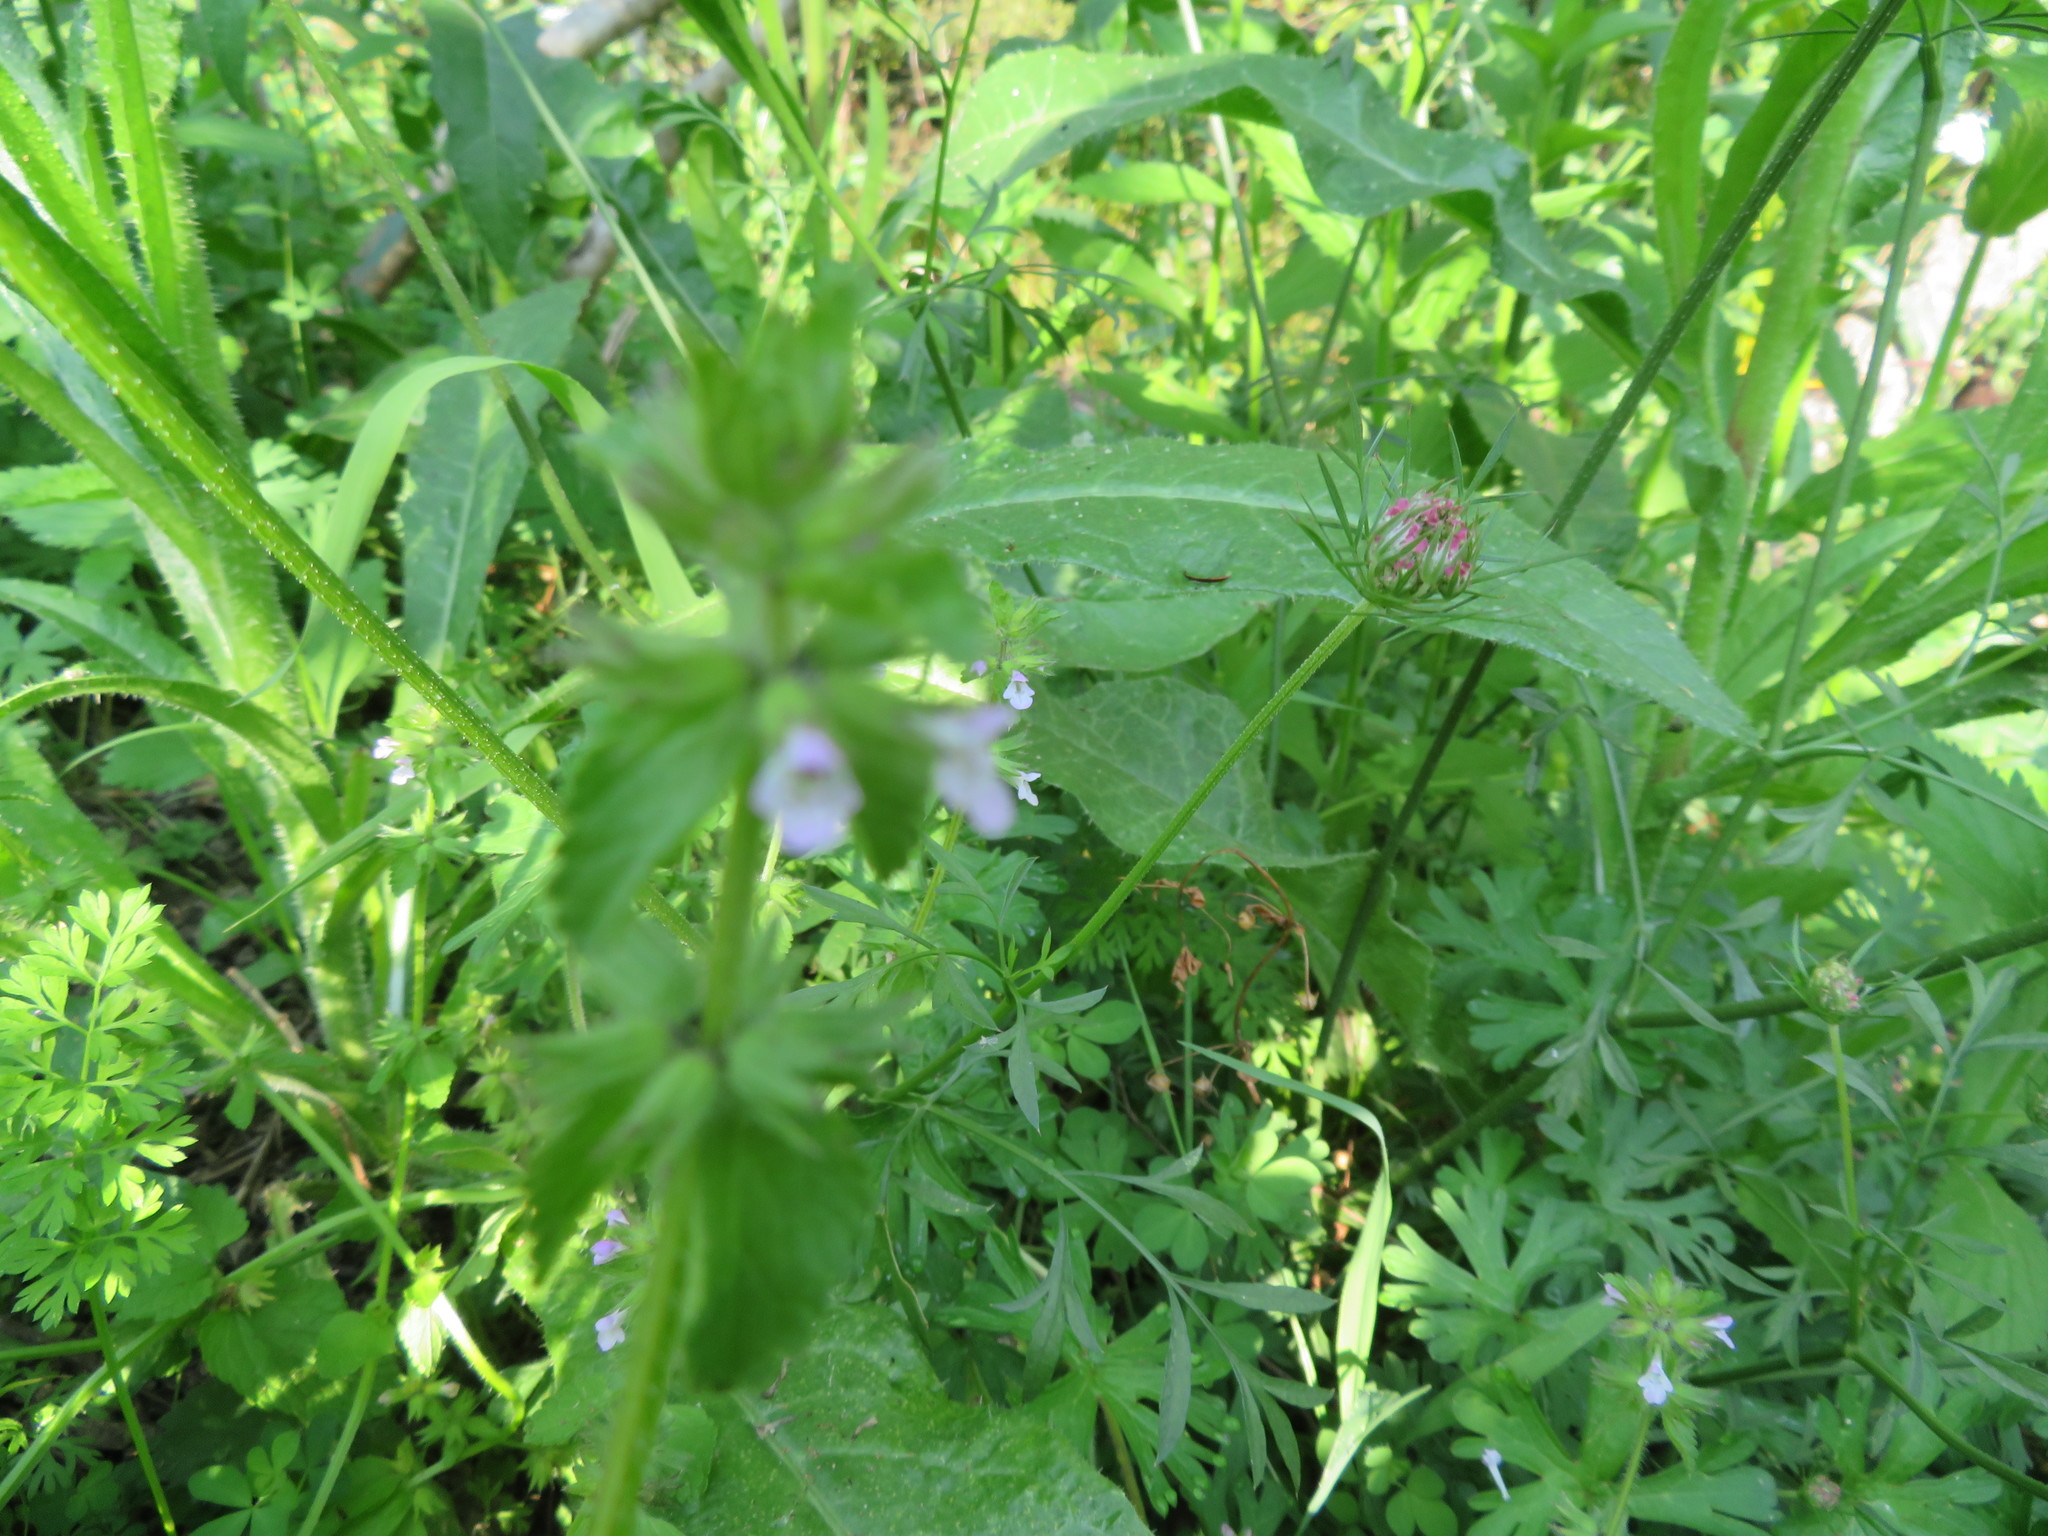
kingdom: Plantae
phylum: Tracheophyta
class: Magnoliopsida
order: Apiales
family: Apiaceae
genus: Daucus
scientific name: Daucus carota
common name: Wild carrot
